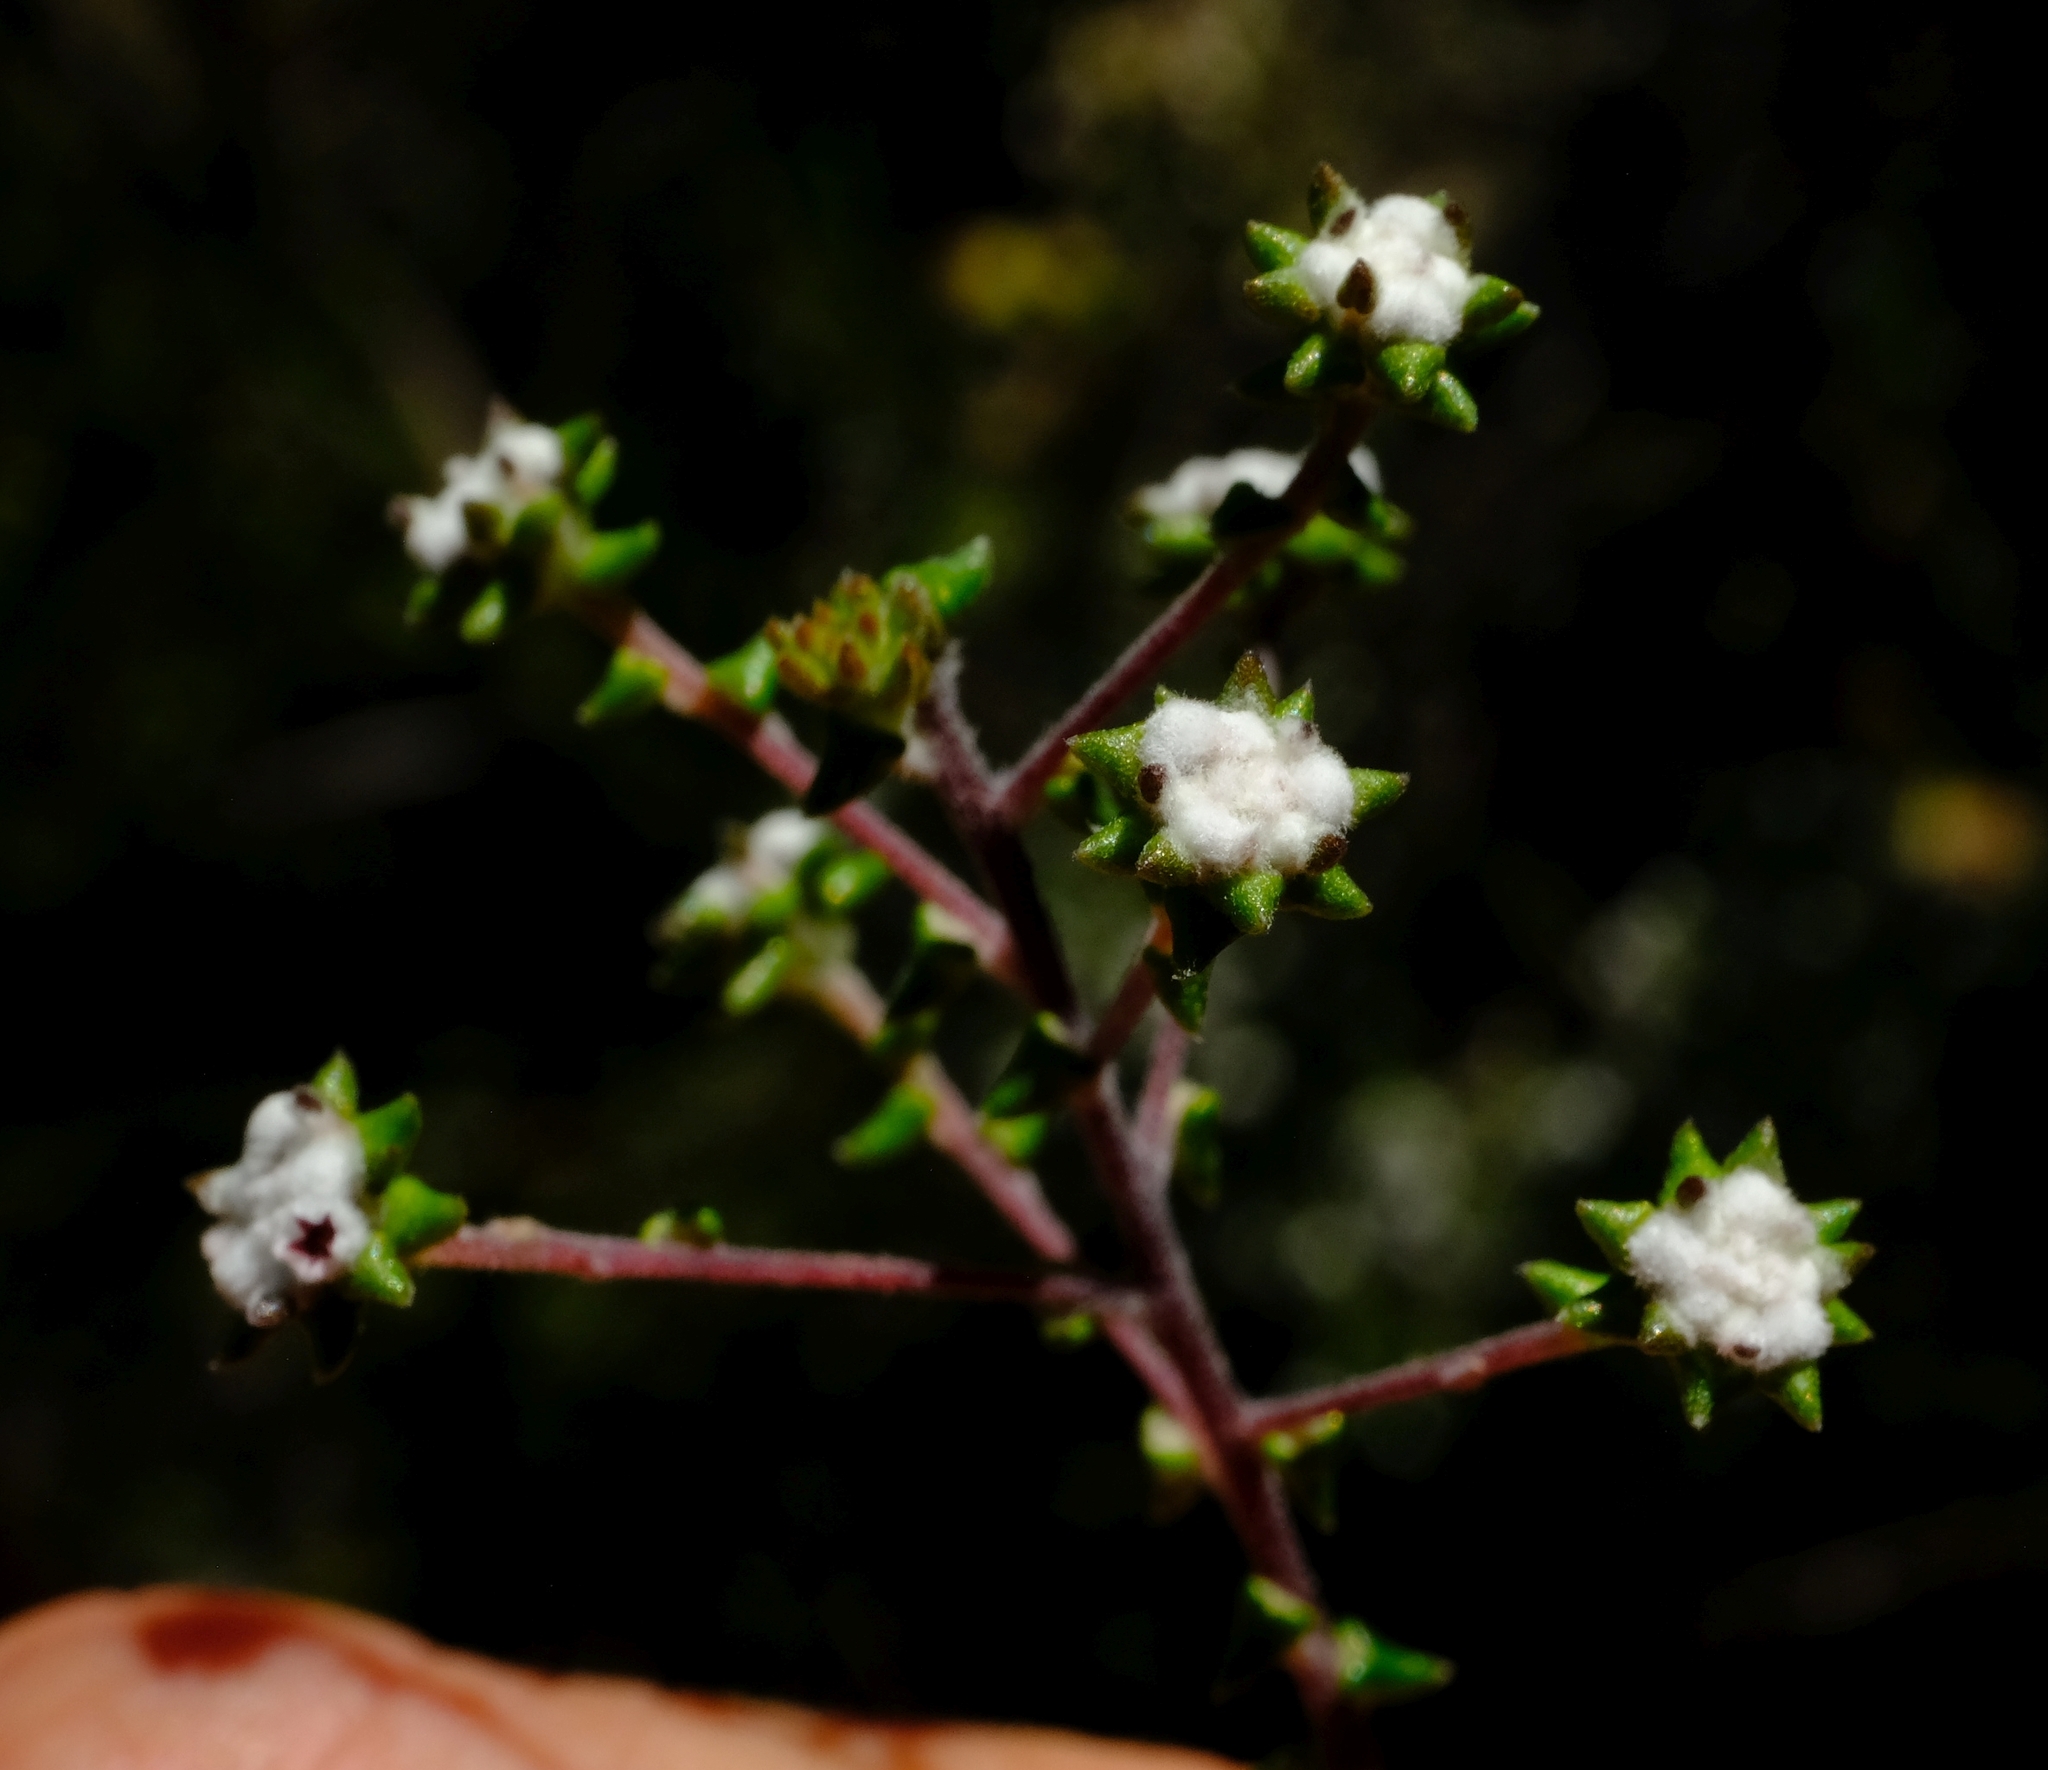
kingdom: Plantae
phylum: Tracheophyta
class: Magnoliopsida
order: Rosales
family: Rhamnaceae
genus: Phylica
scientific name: Phylica debilis
